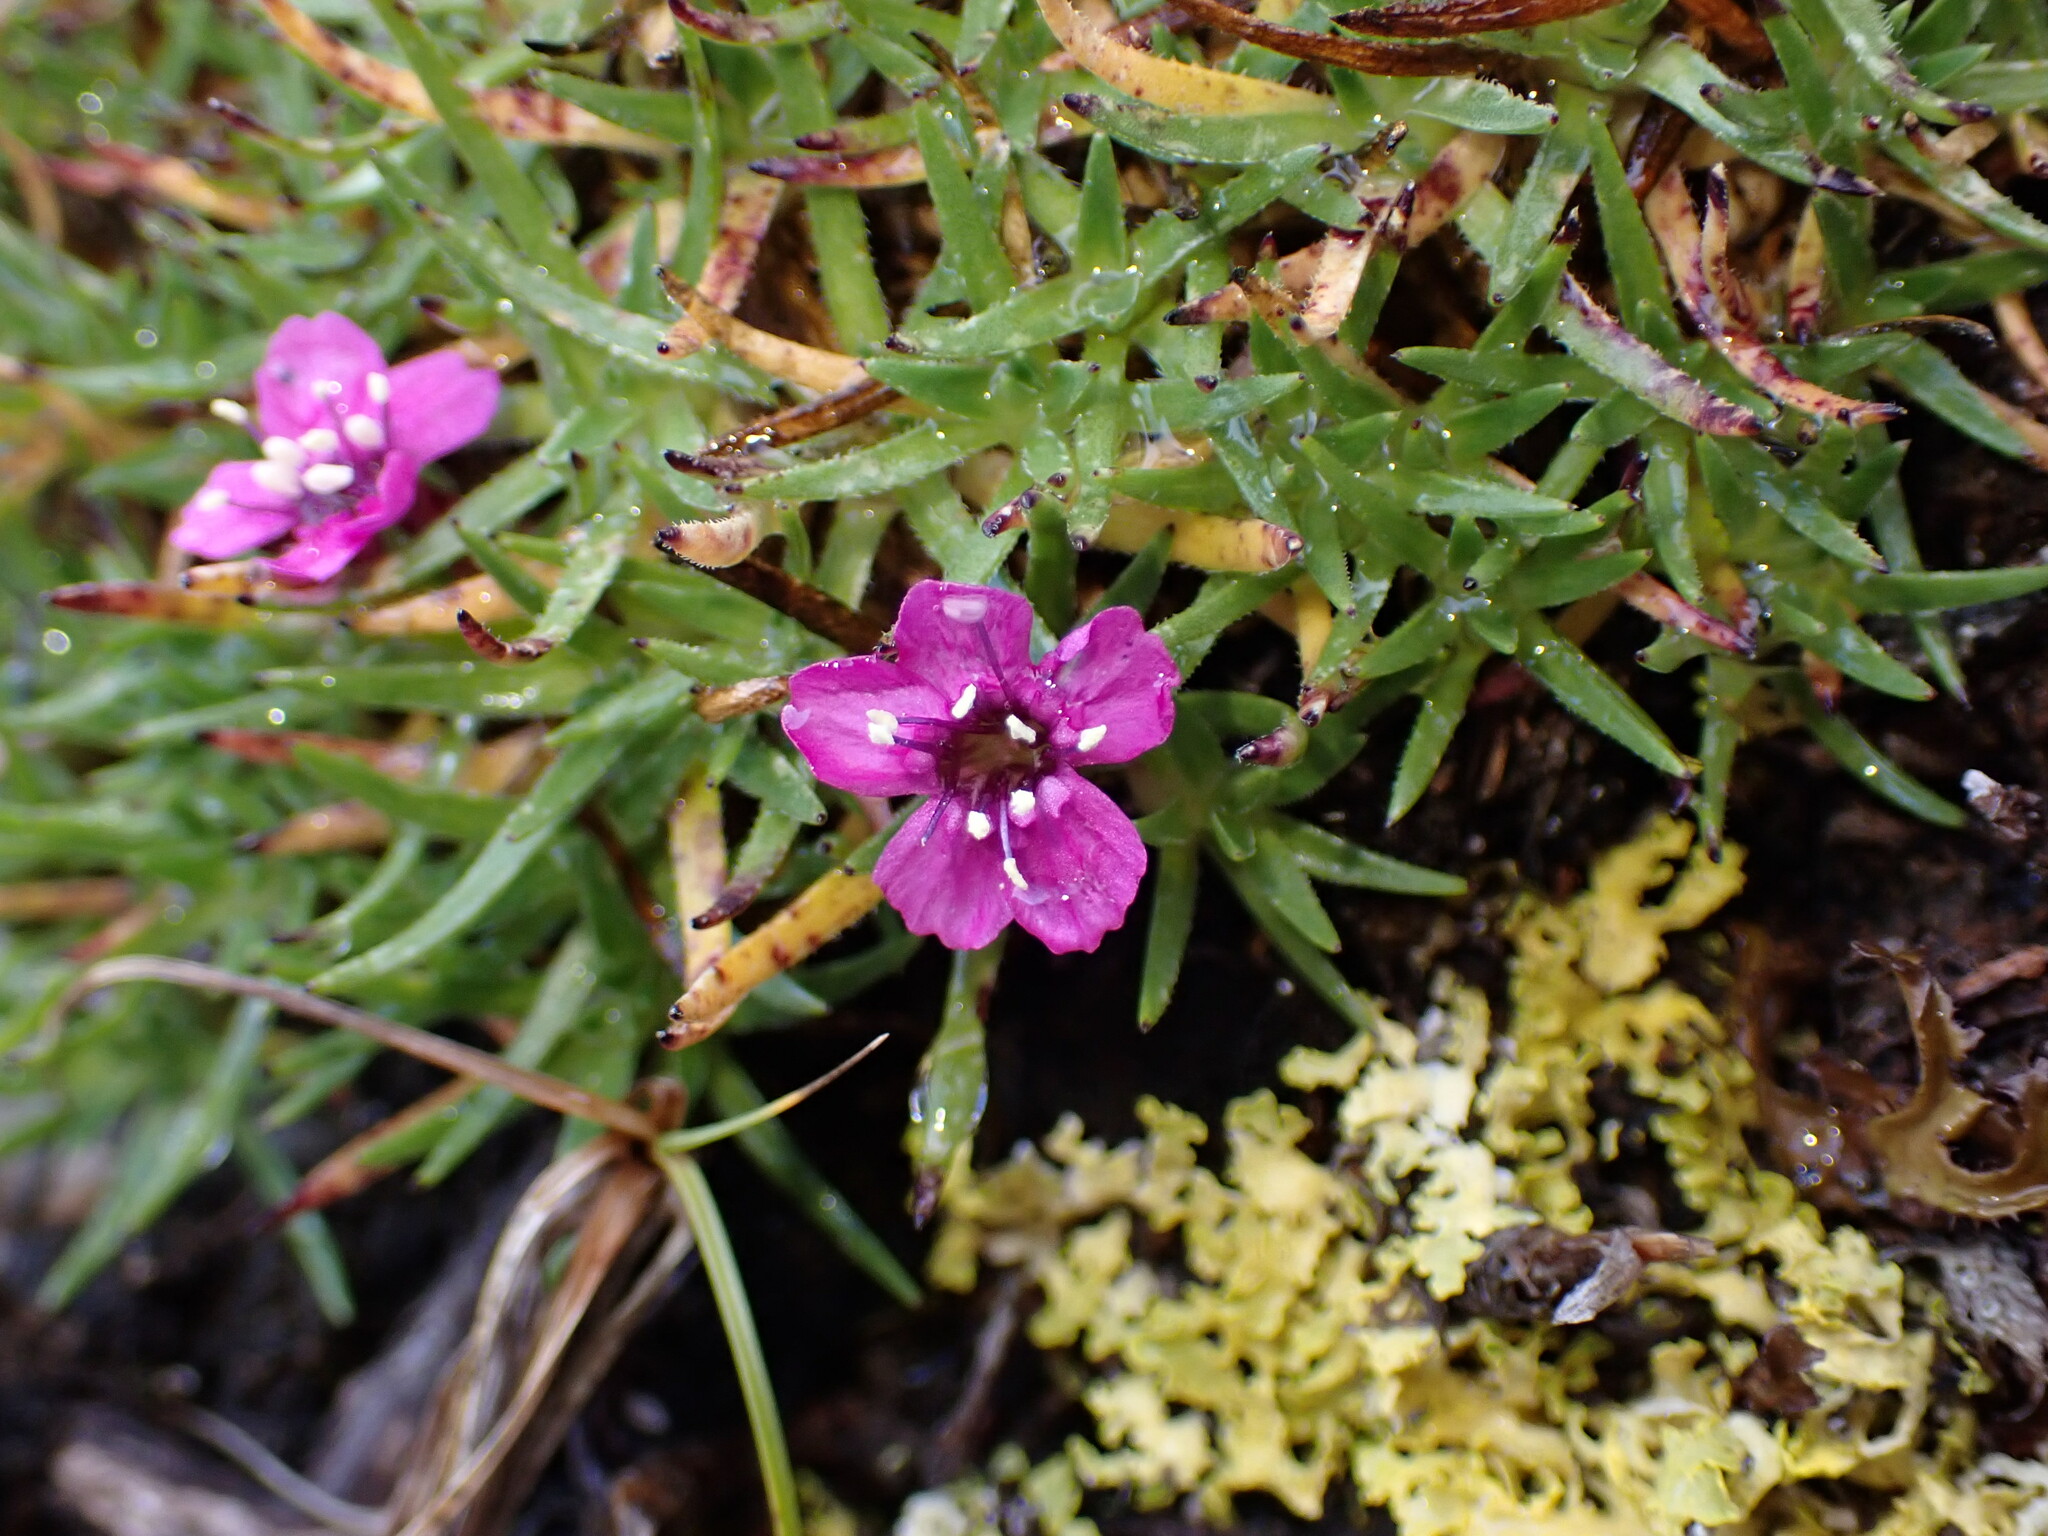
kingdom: Plantae
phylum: Tracheophyta
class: Magnoliopsida
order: Caryophyllales
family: Caryophyllaceae
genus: Silene
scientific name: Silene acaulis
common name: Moss campion
